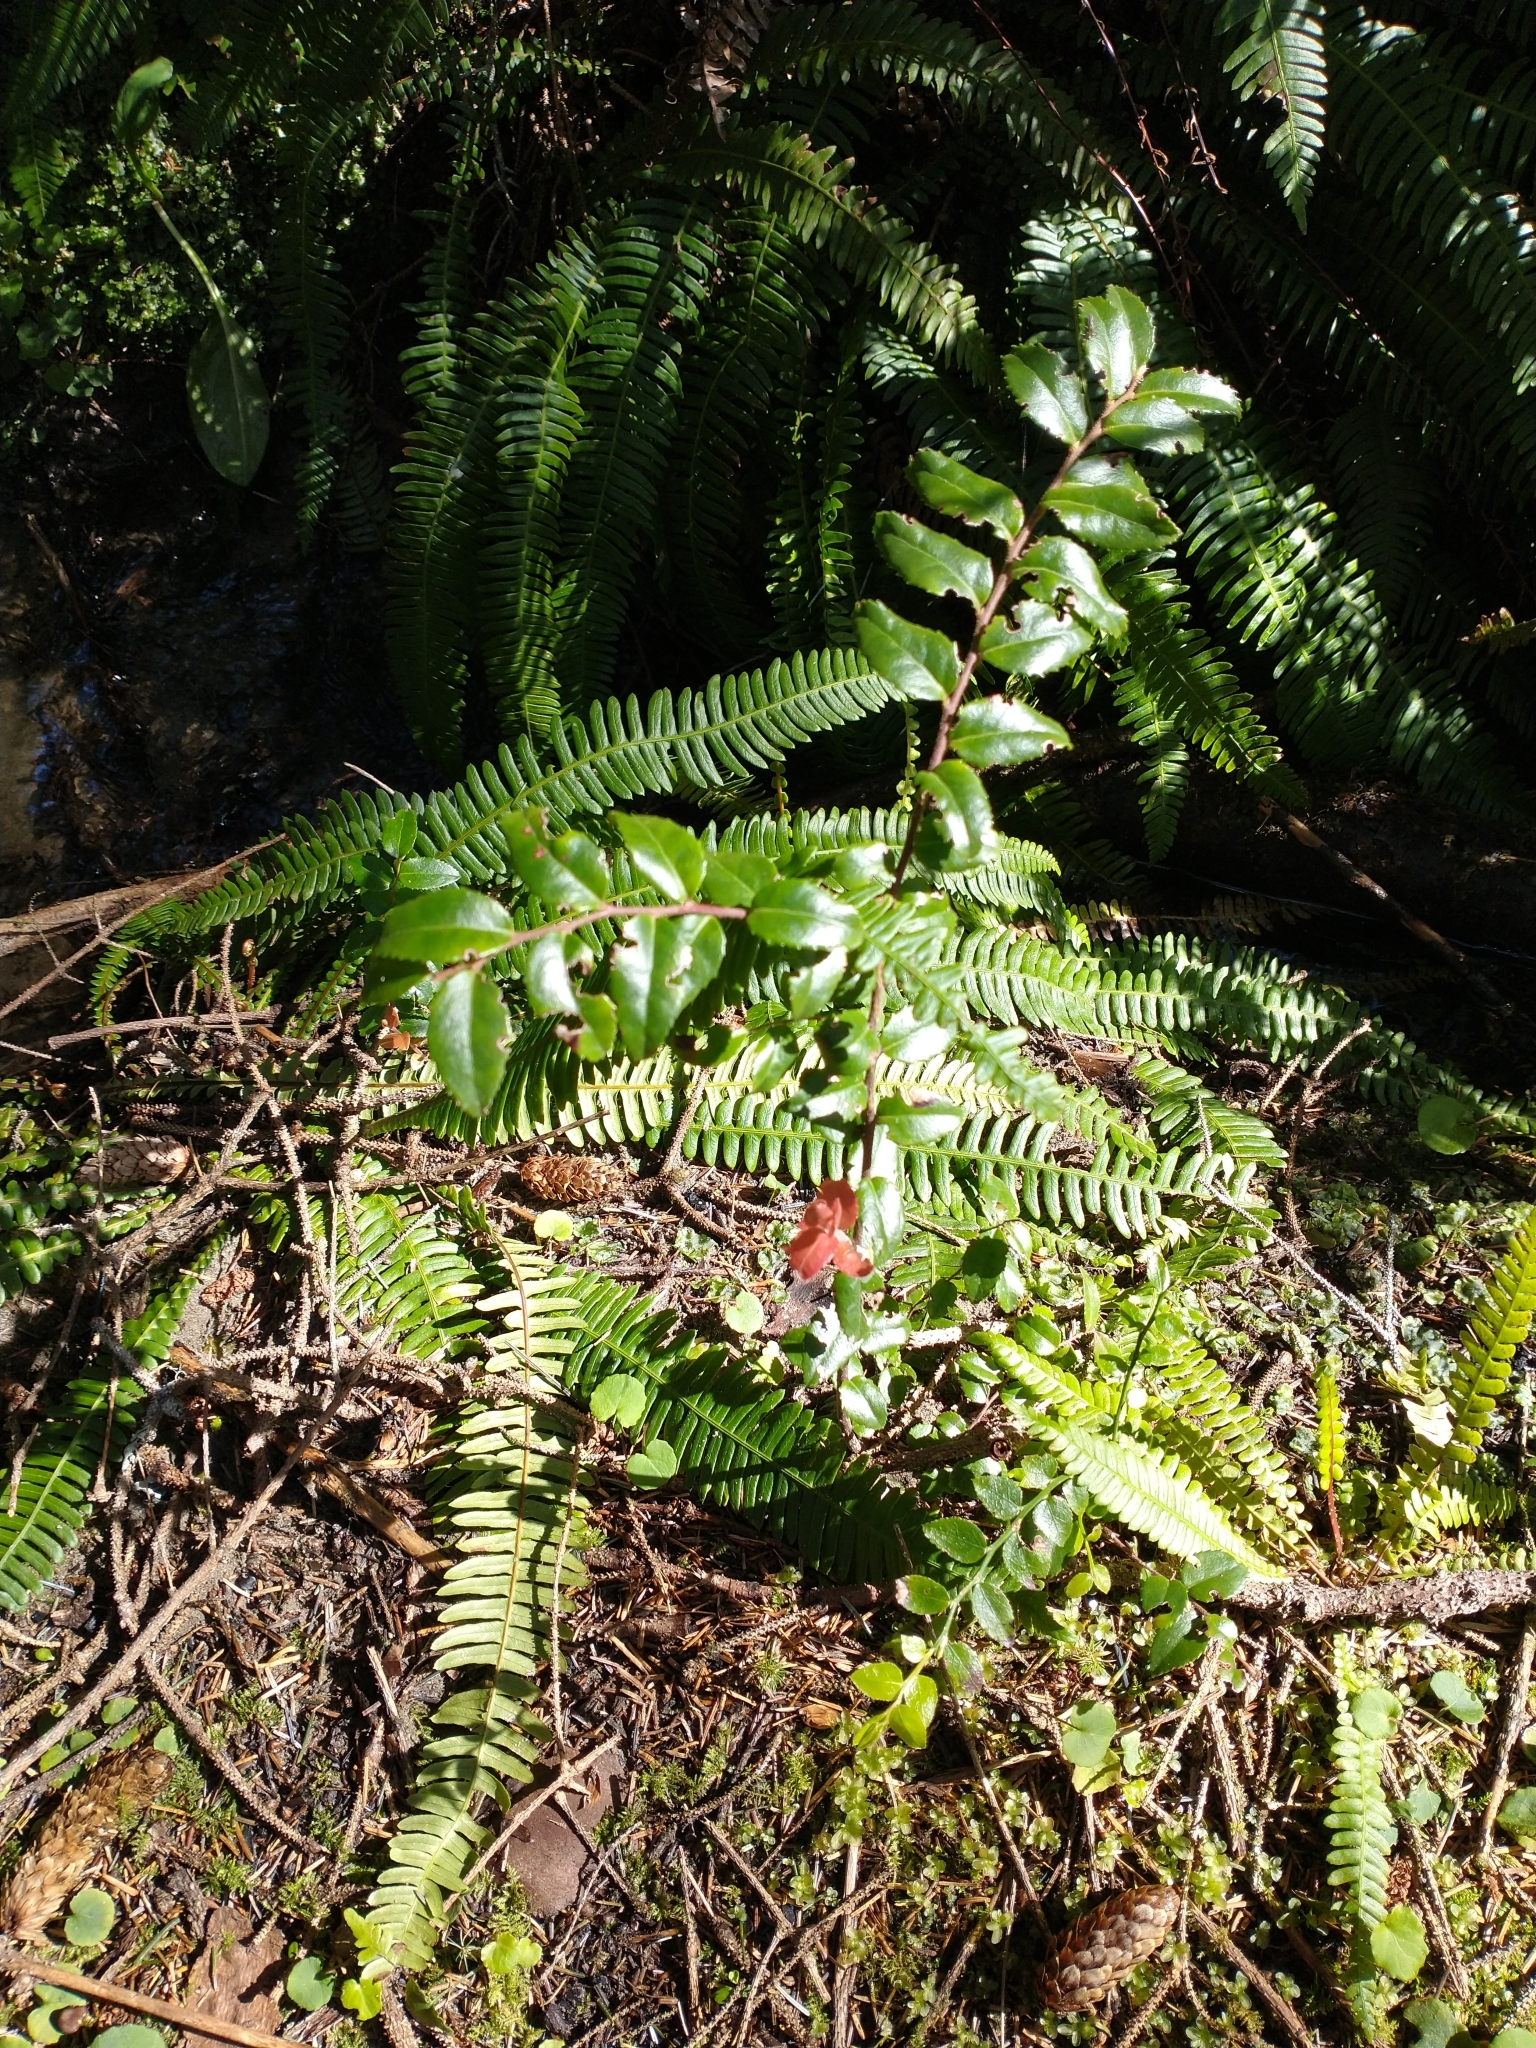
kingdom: Plantae
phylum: Tracheophyta
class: Magnoliopsida
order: Ericales
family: Ericaceae
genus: Vaccinium
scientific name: Vaccinium ovatum
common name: California-huckleberry
